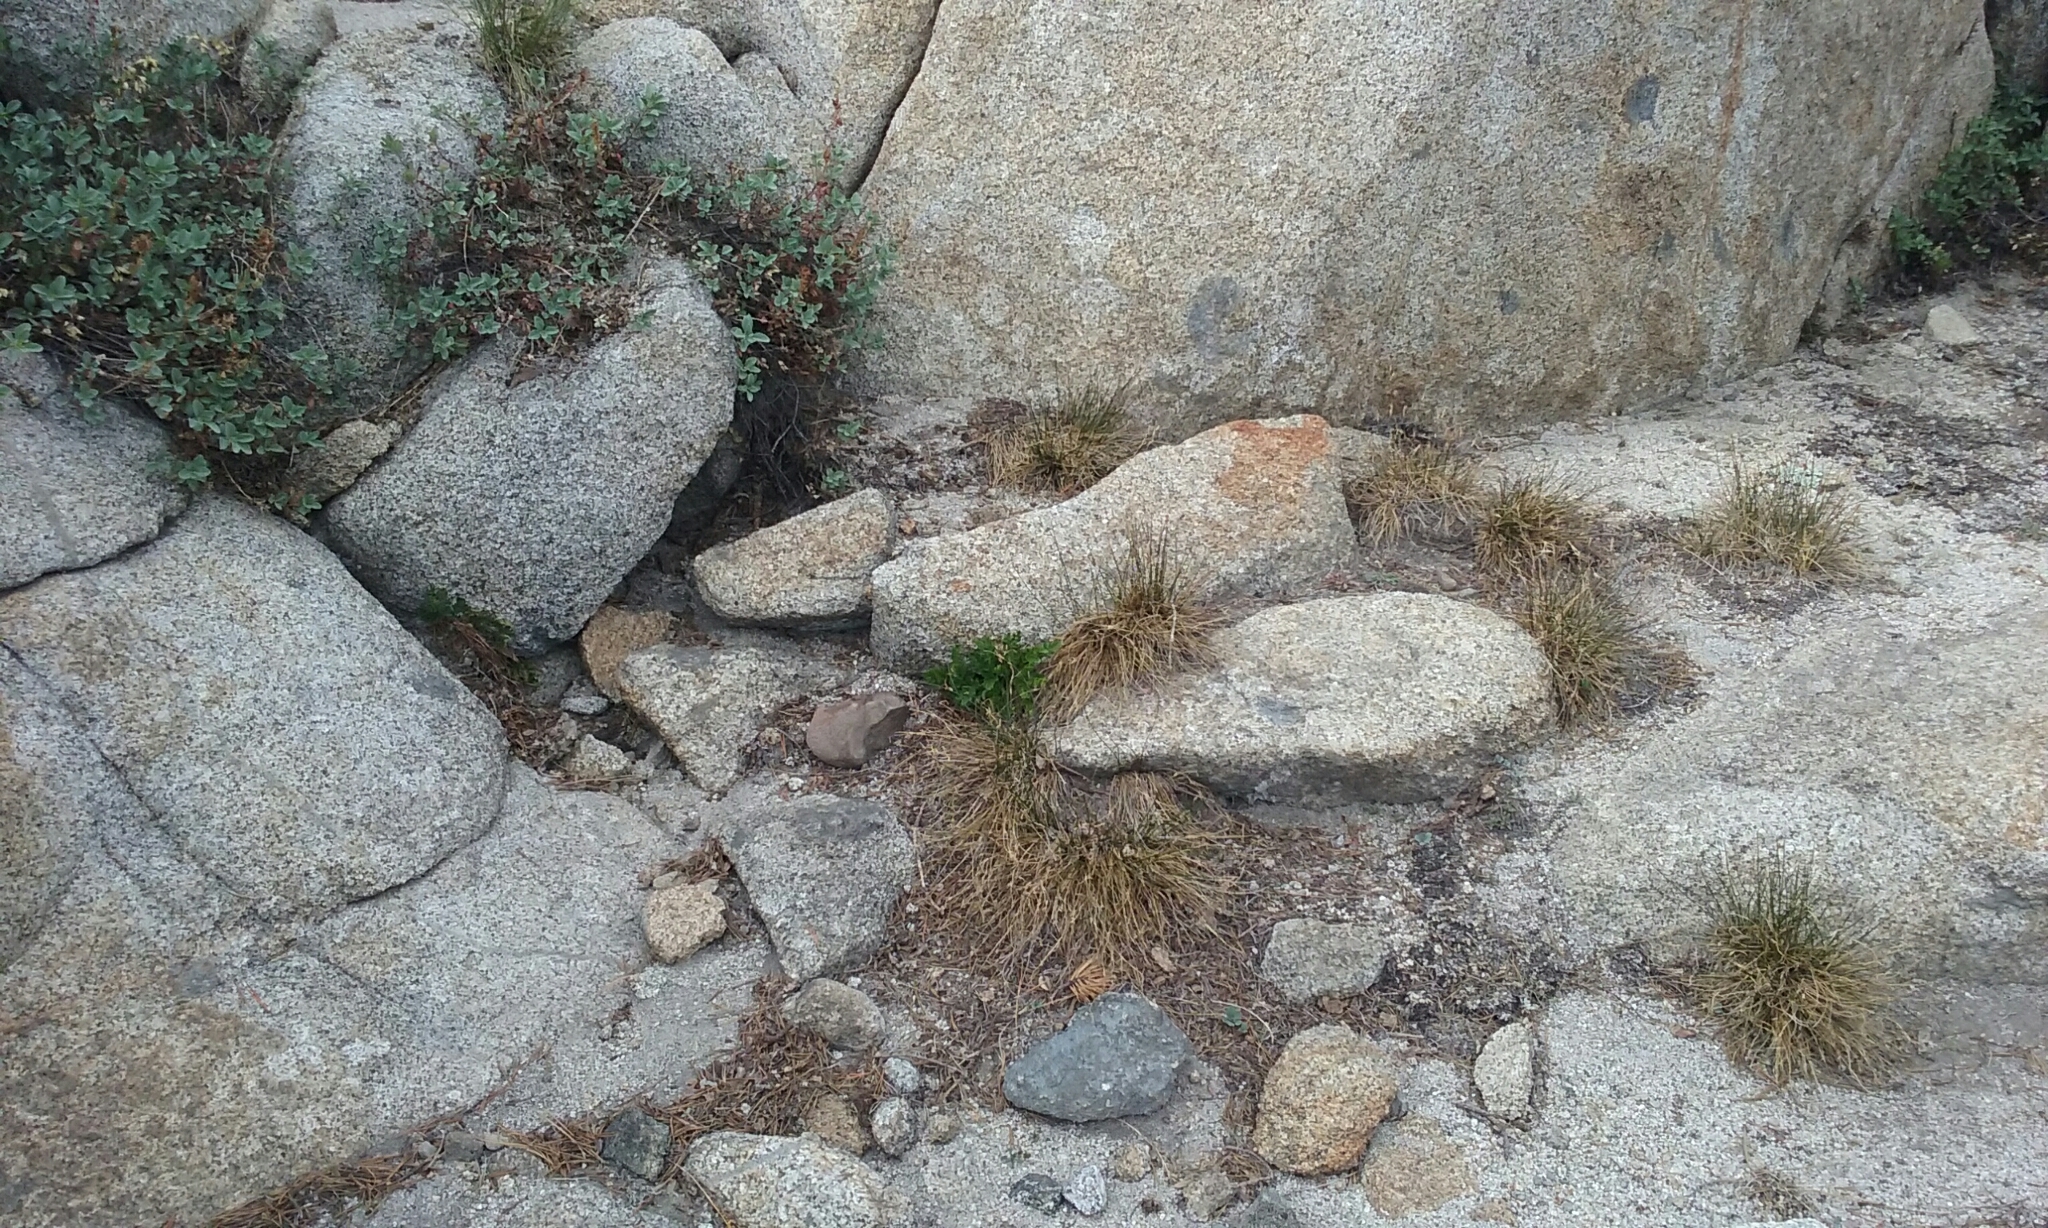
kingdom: Plantae
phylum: Tracheophyta
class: Polypodiopsida
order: Polypodiales
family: Pteridaceae
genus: Cryptogramma
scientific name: Cryptogramma acrostichoides
